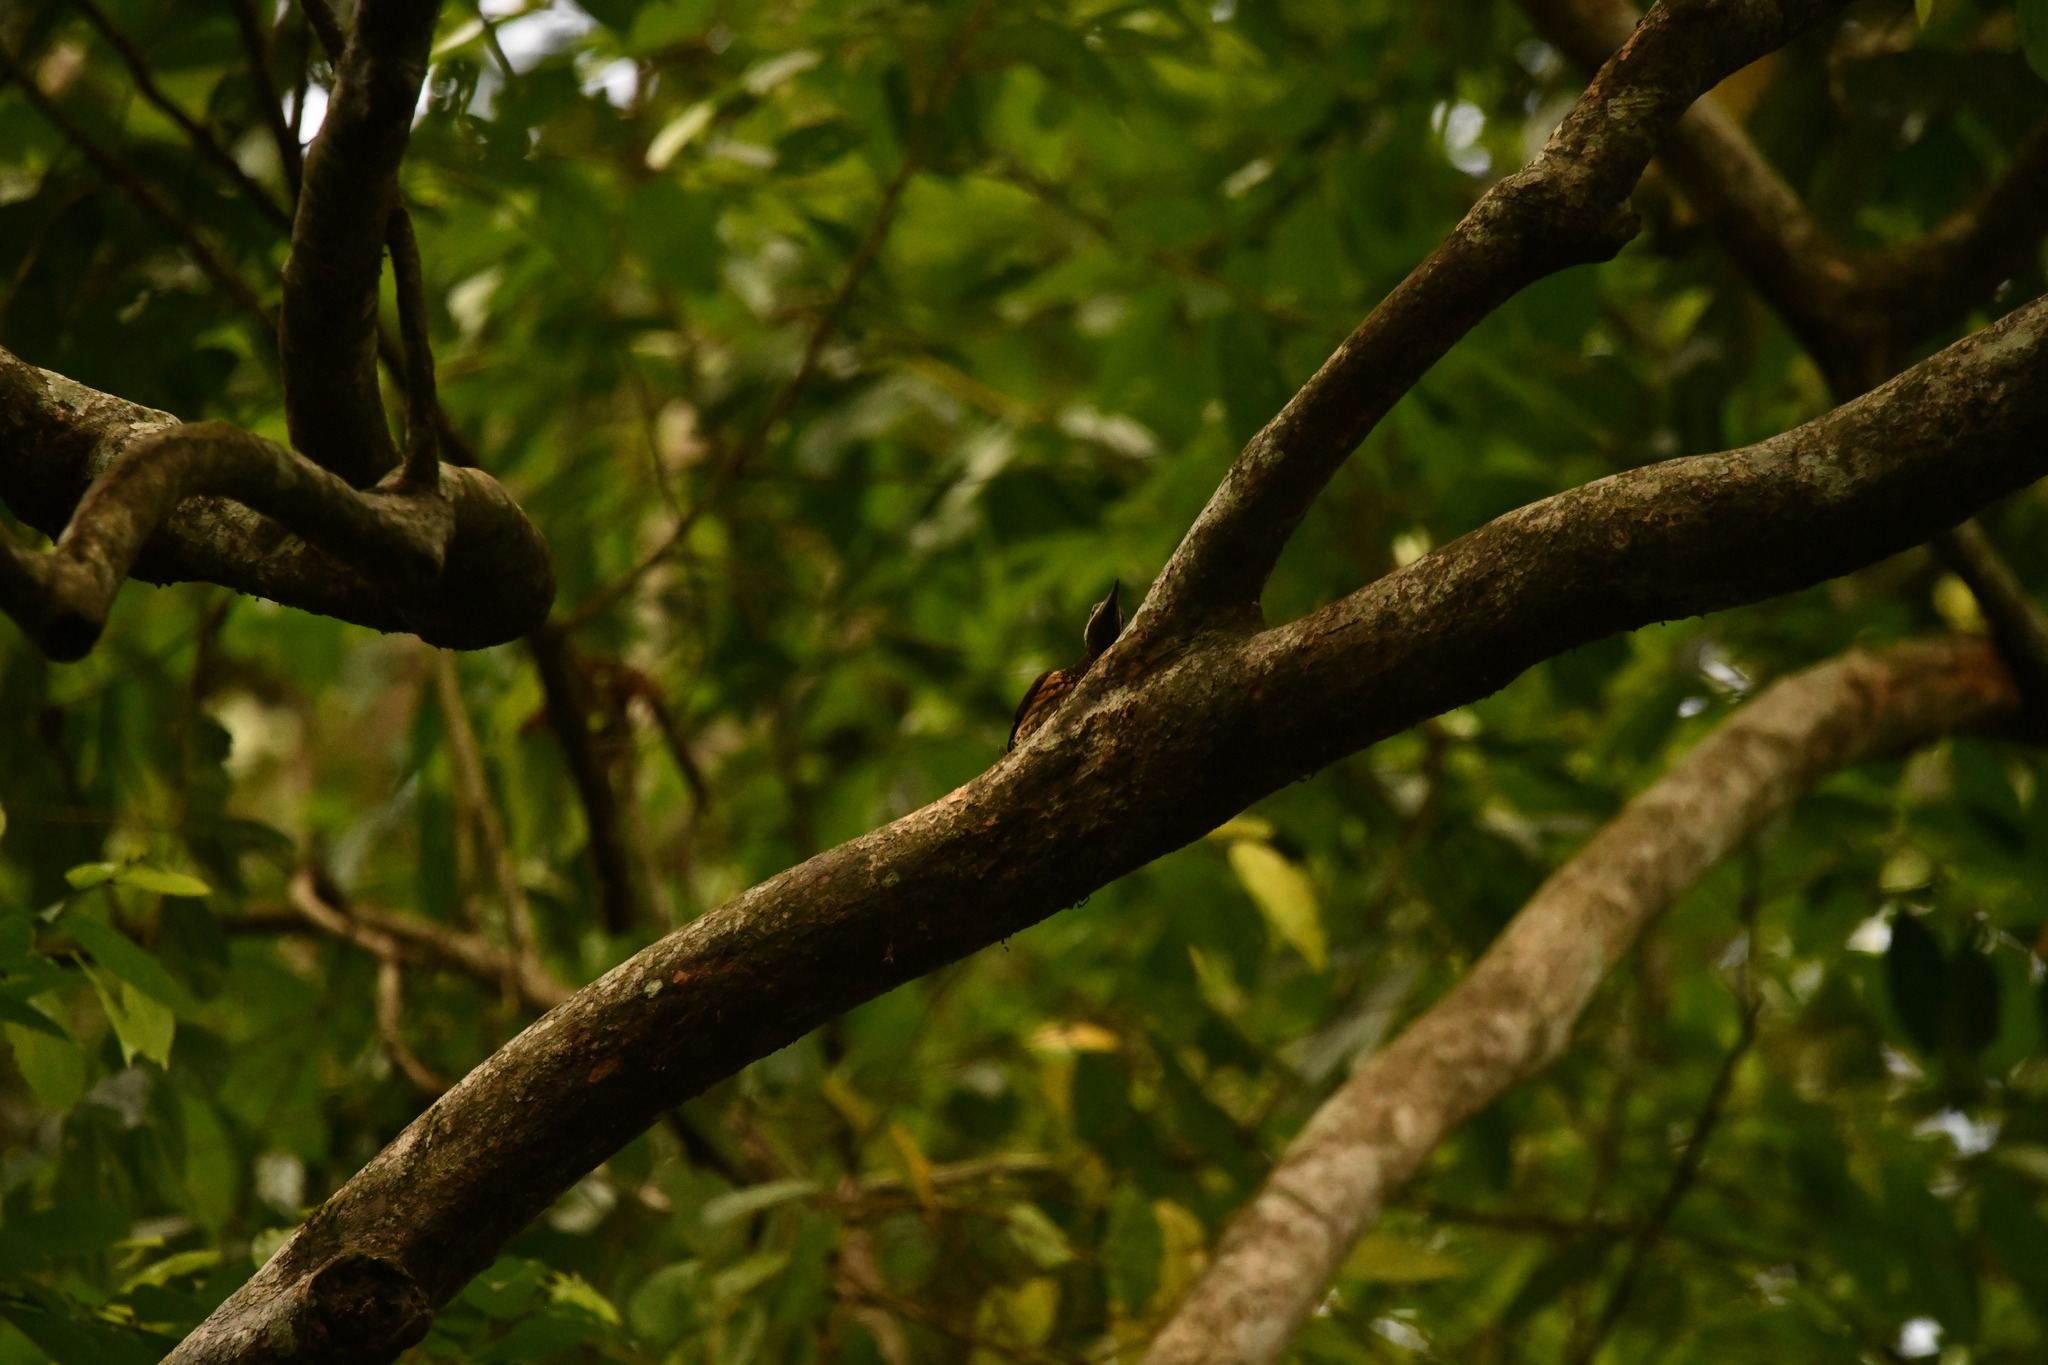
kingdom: Animalia
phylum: Chordata
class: Aves
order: Piciformes
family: Picidae
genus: Dinopium
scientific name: Dinopium benghalense
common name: Black-rumped flameback
